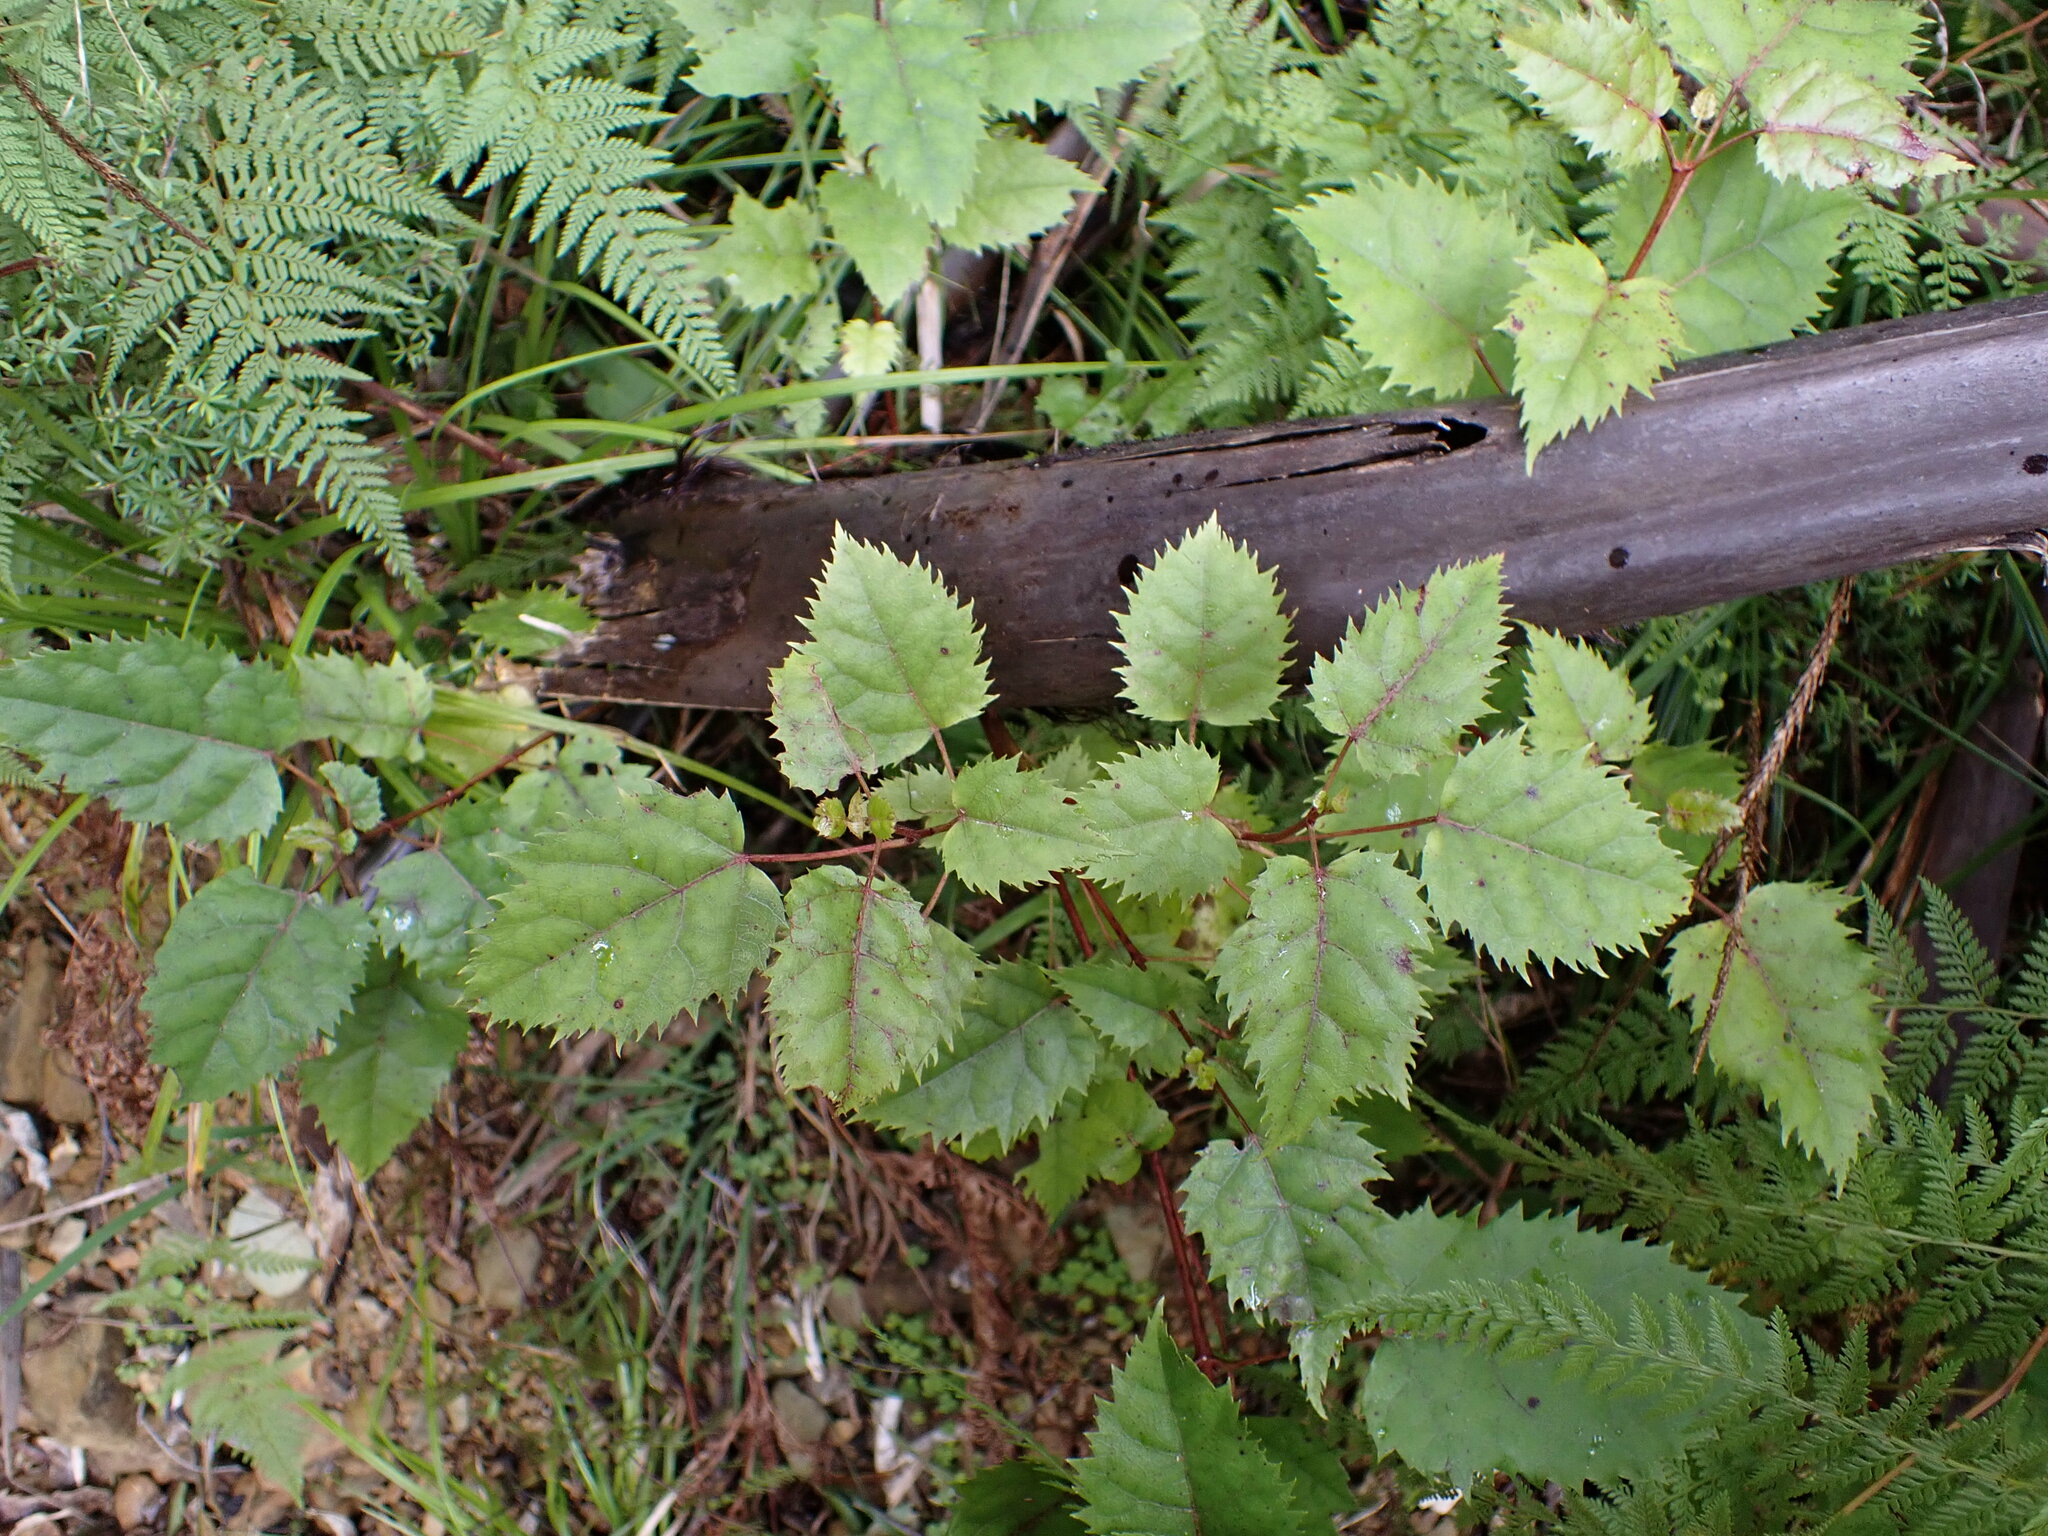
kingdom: Plantae
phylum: Tracheophyta
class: Magnoliopsida
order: Oxalidales
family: Elaeocarpaceae
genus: Aristotelia
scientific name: Aristotelia serrata
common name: New zealand wineberry
